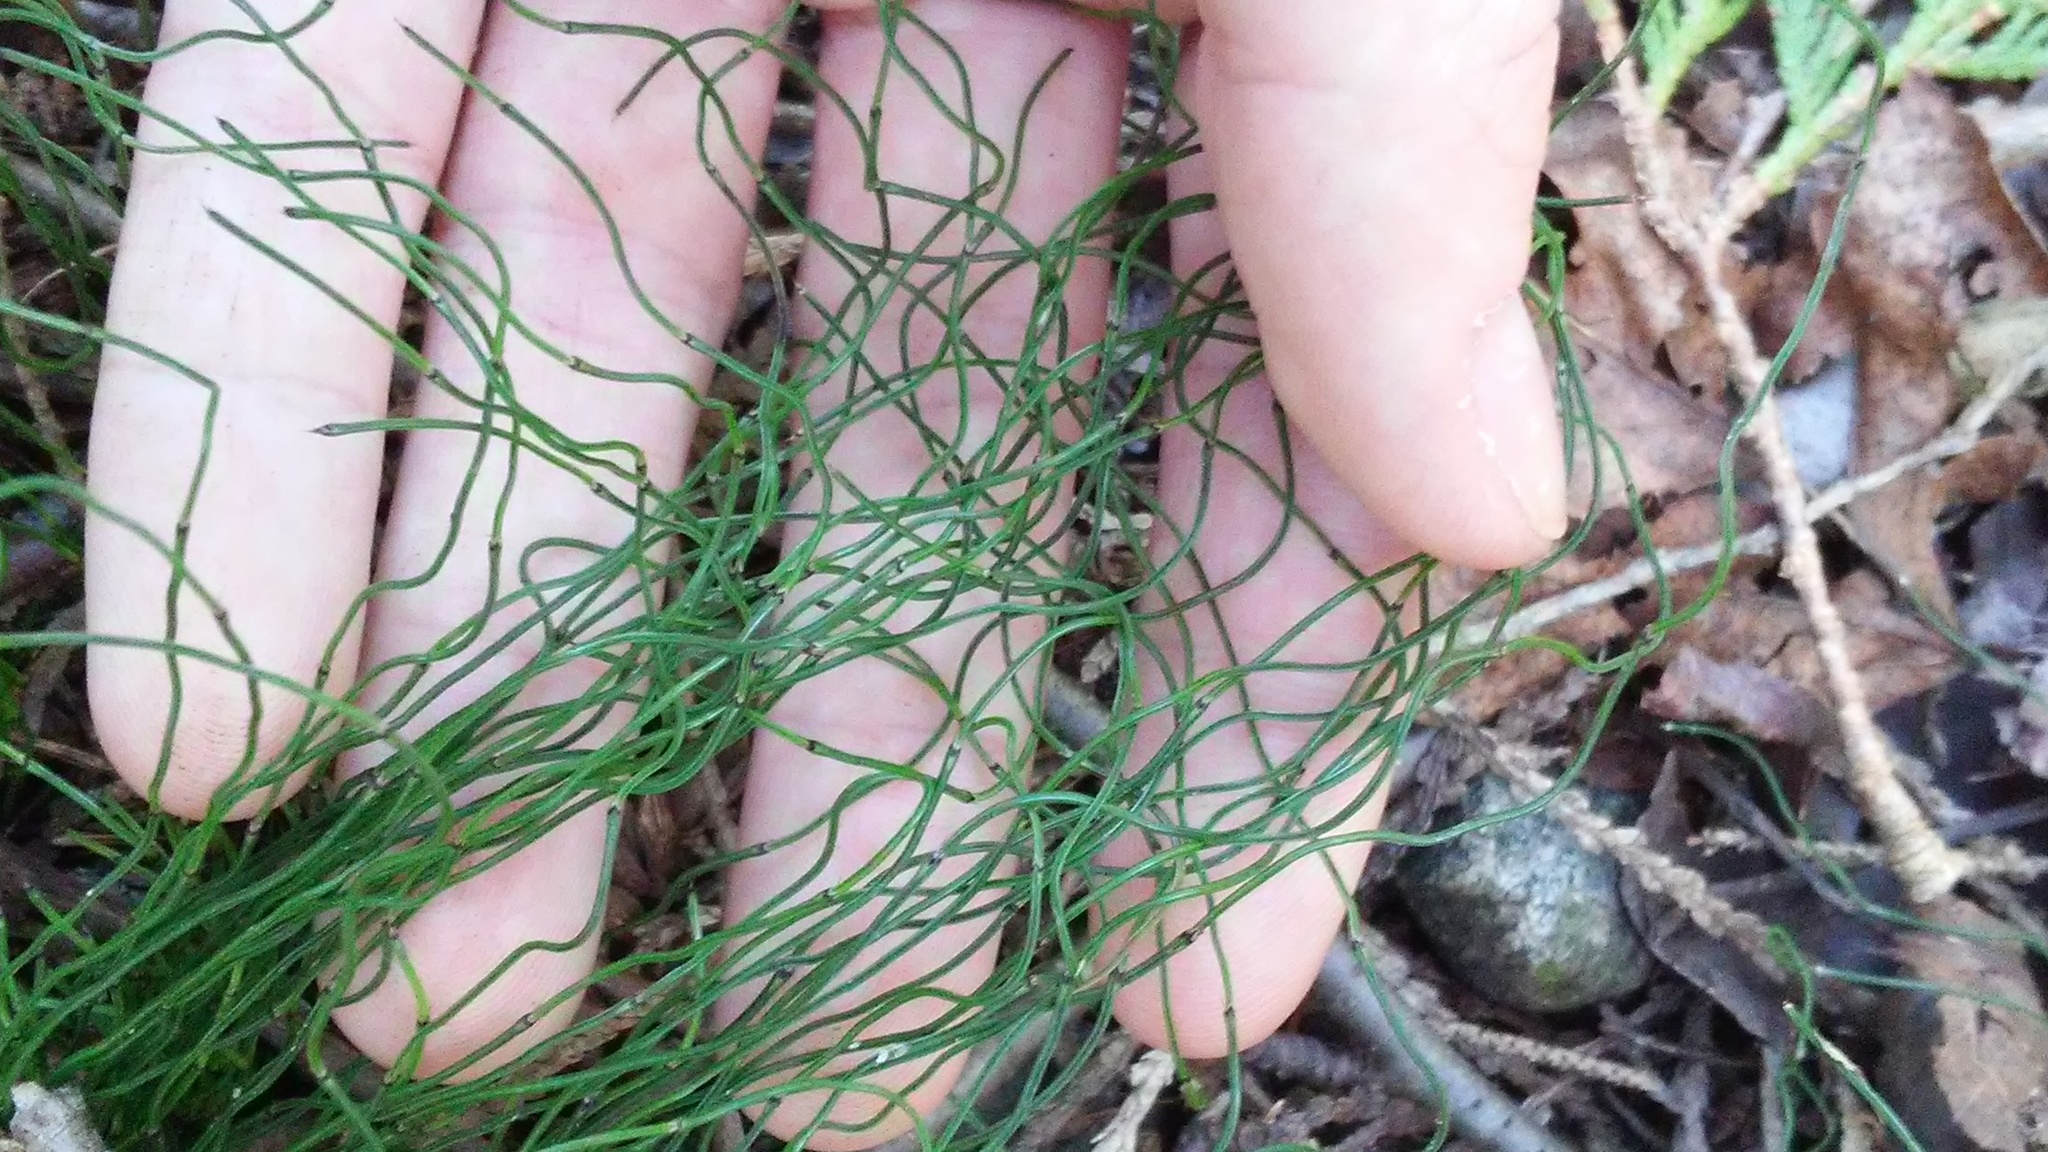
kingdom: Plantae
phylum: Tracheophyta
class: Polypodiopsida
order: Equisetales
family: Equisetaceae
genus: Equisetum
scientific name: Equisetum scirpoides
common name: Delicate horsetail
